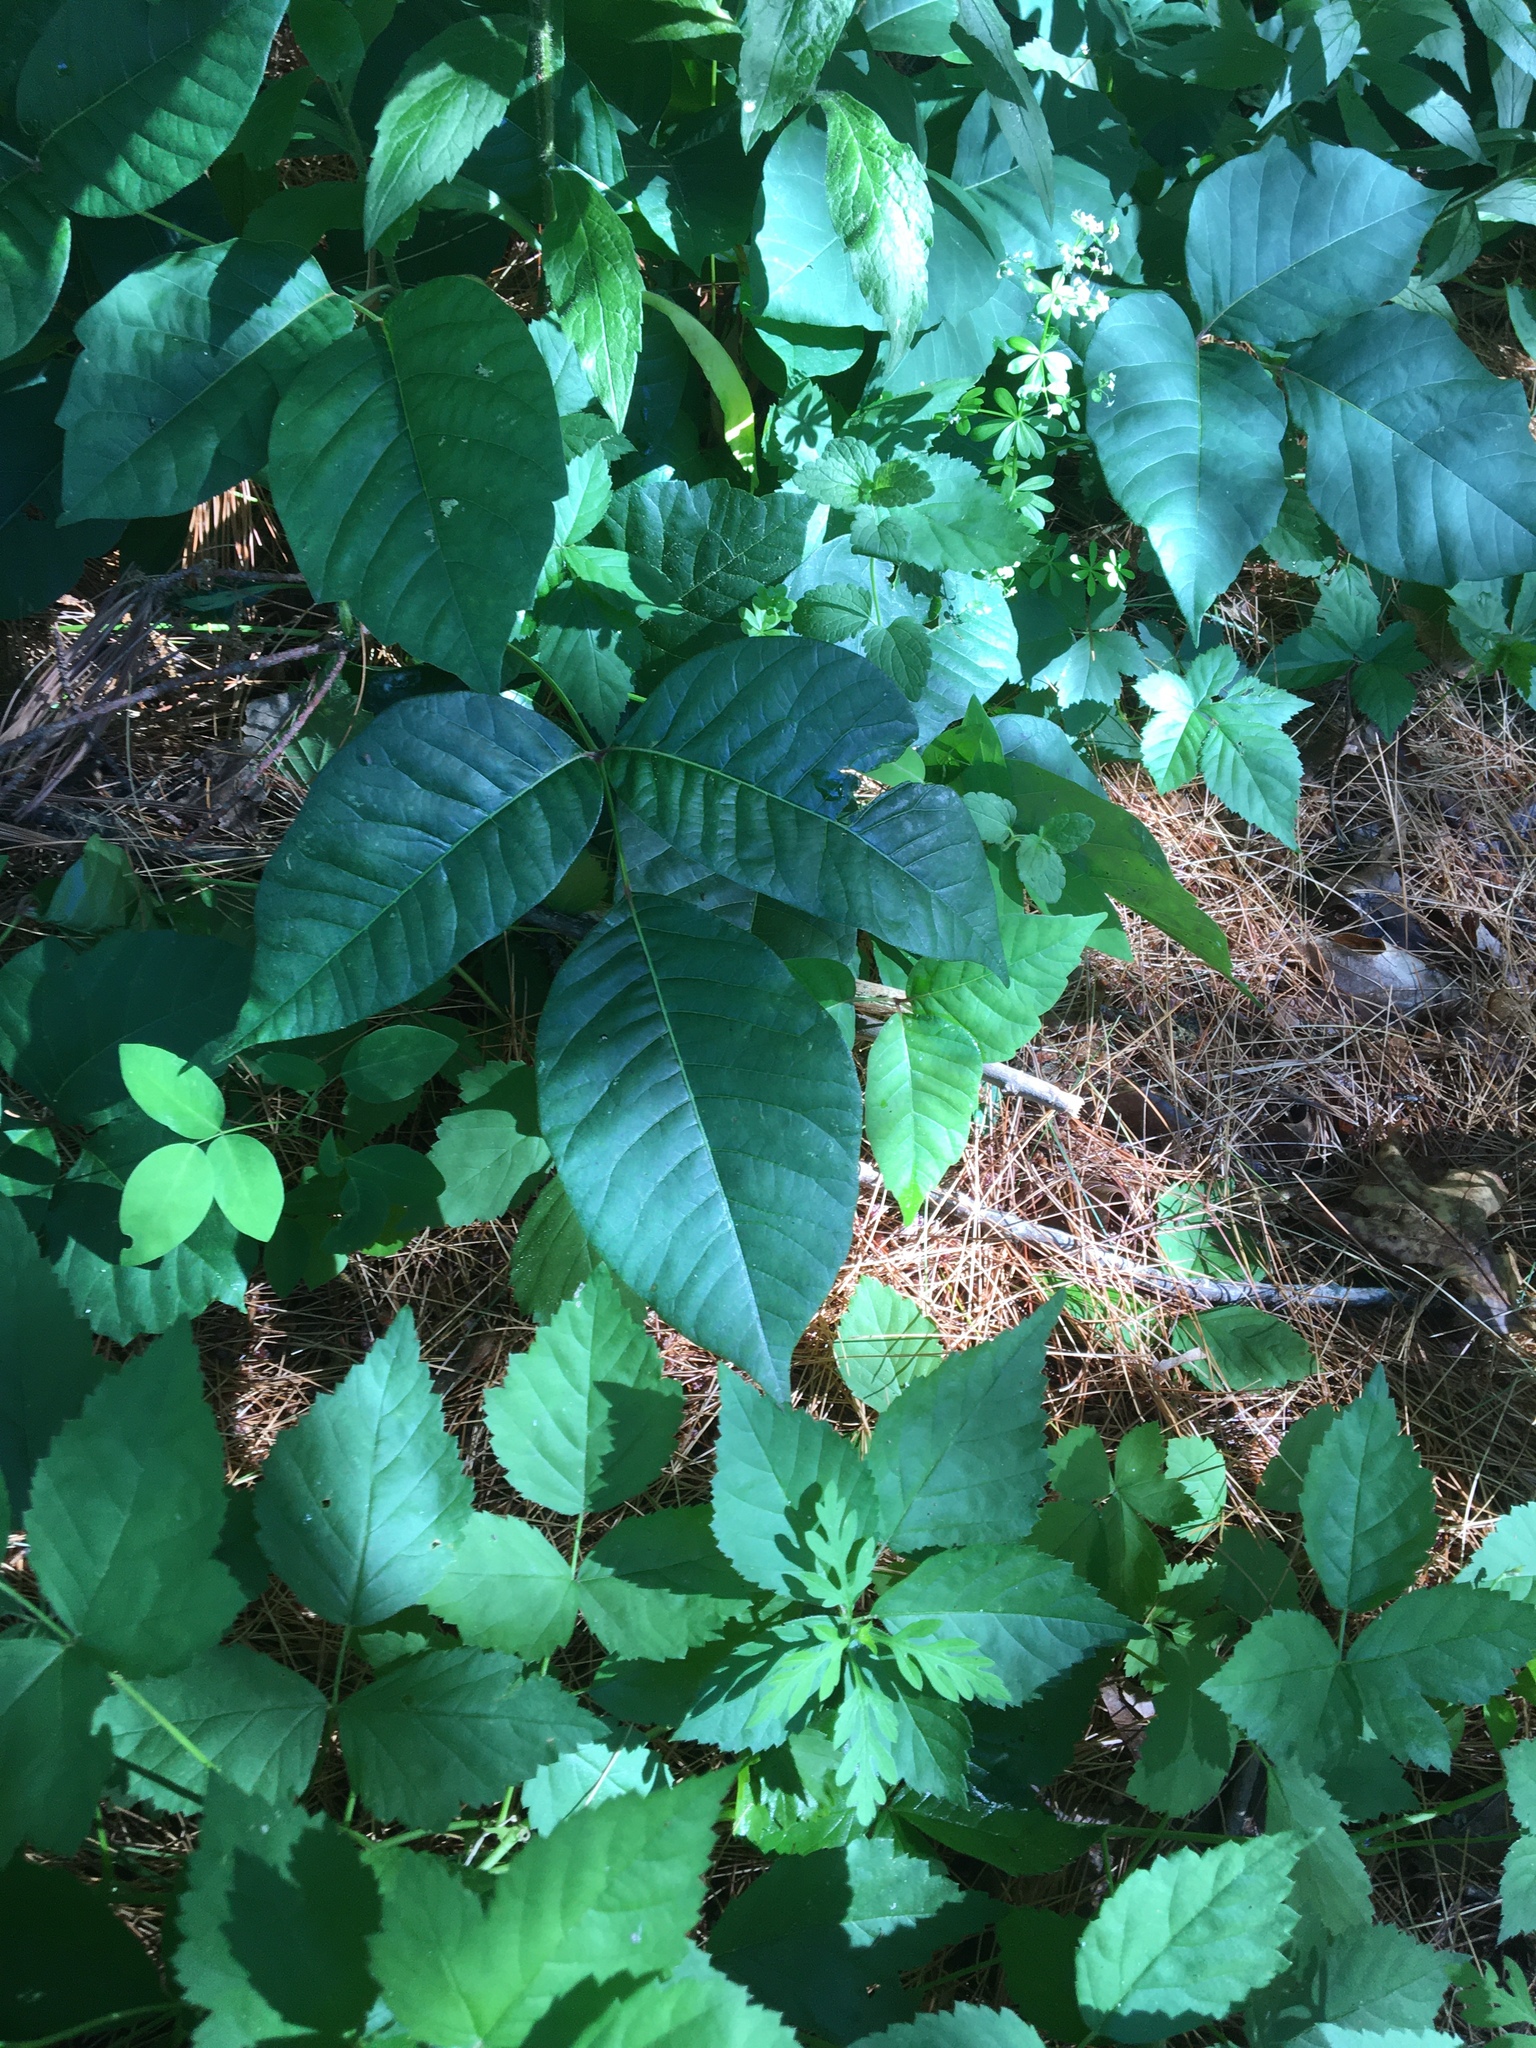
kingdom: Plantae
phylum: Tracheophyta
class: Magnoliopsida
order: Sapindales
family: Anacardiaceae
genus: Toxicodendron
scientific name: Toxicodendron radicans
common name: Poison ivy
